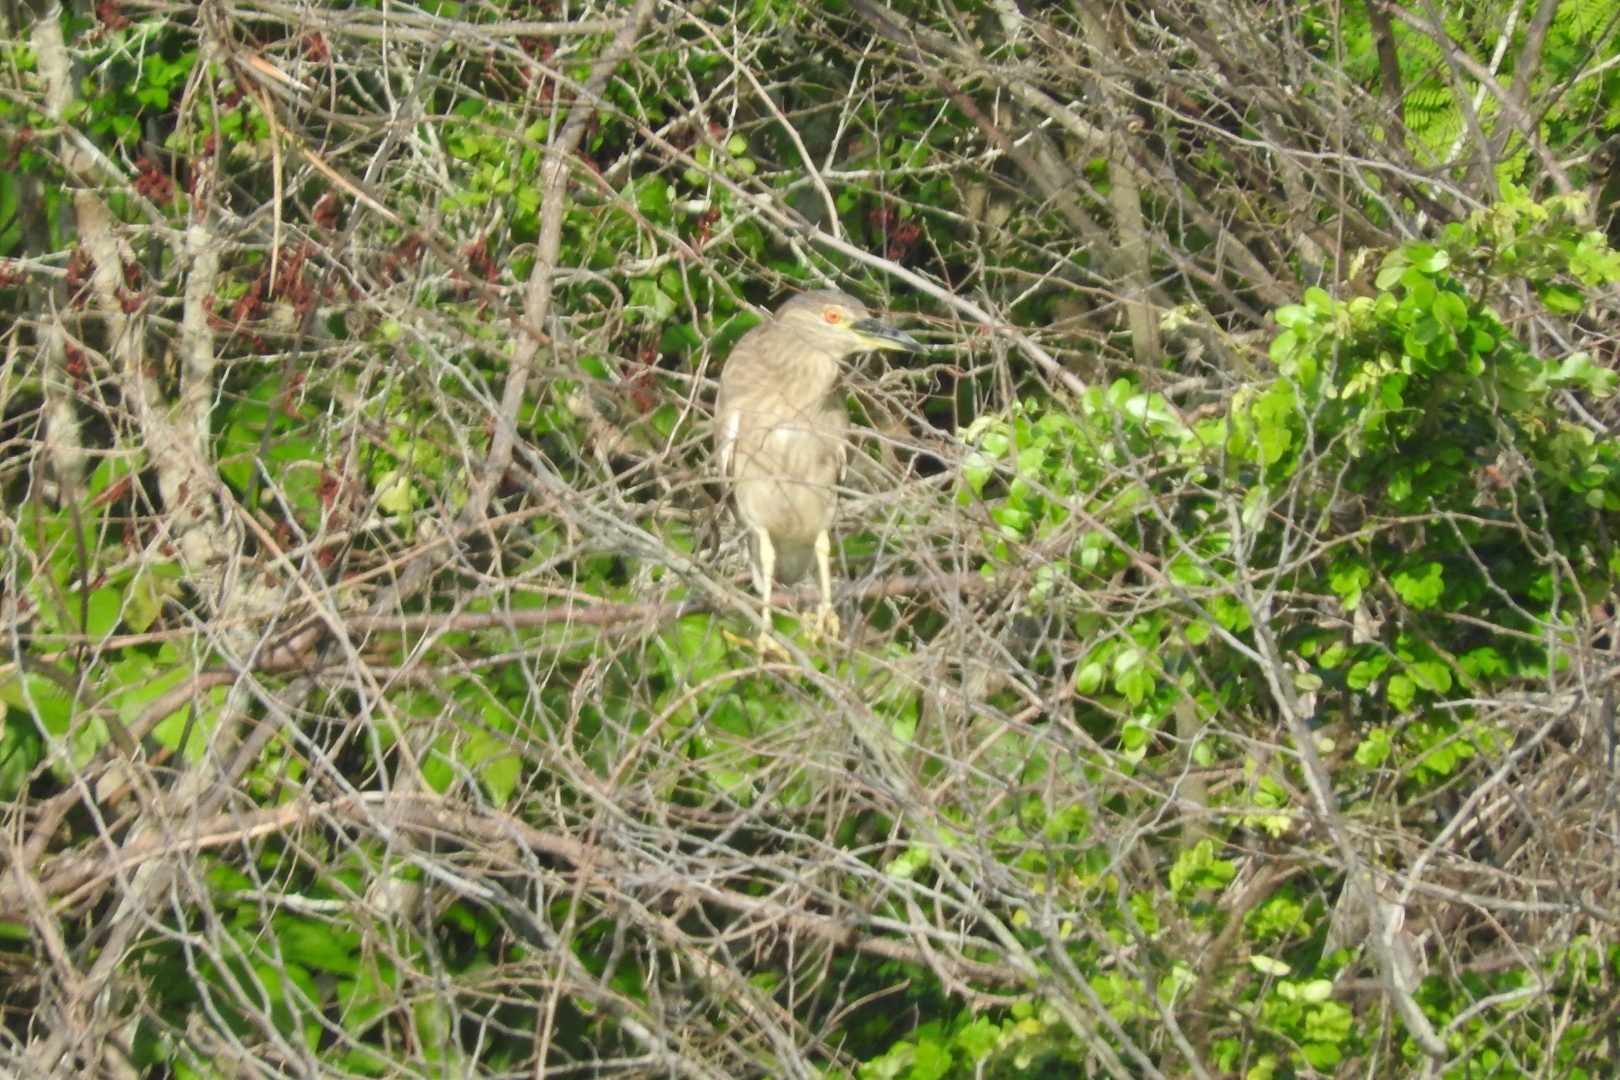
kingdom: Animalia
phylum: Chordata
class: Aves
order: Pelecaniformes
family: Ardeidae
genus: Nycticorax
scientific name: Nycticorax nycticorax
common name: Black-crowned night heron
